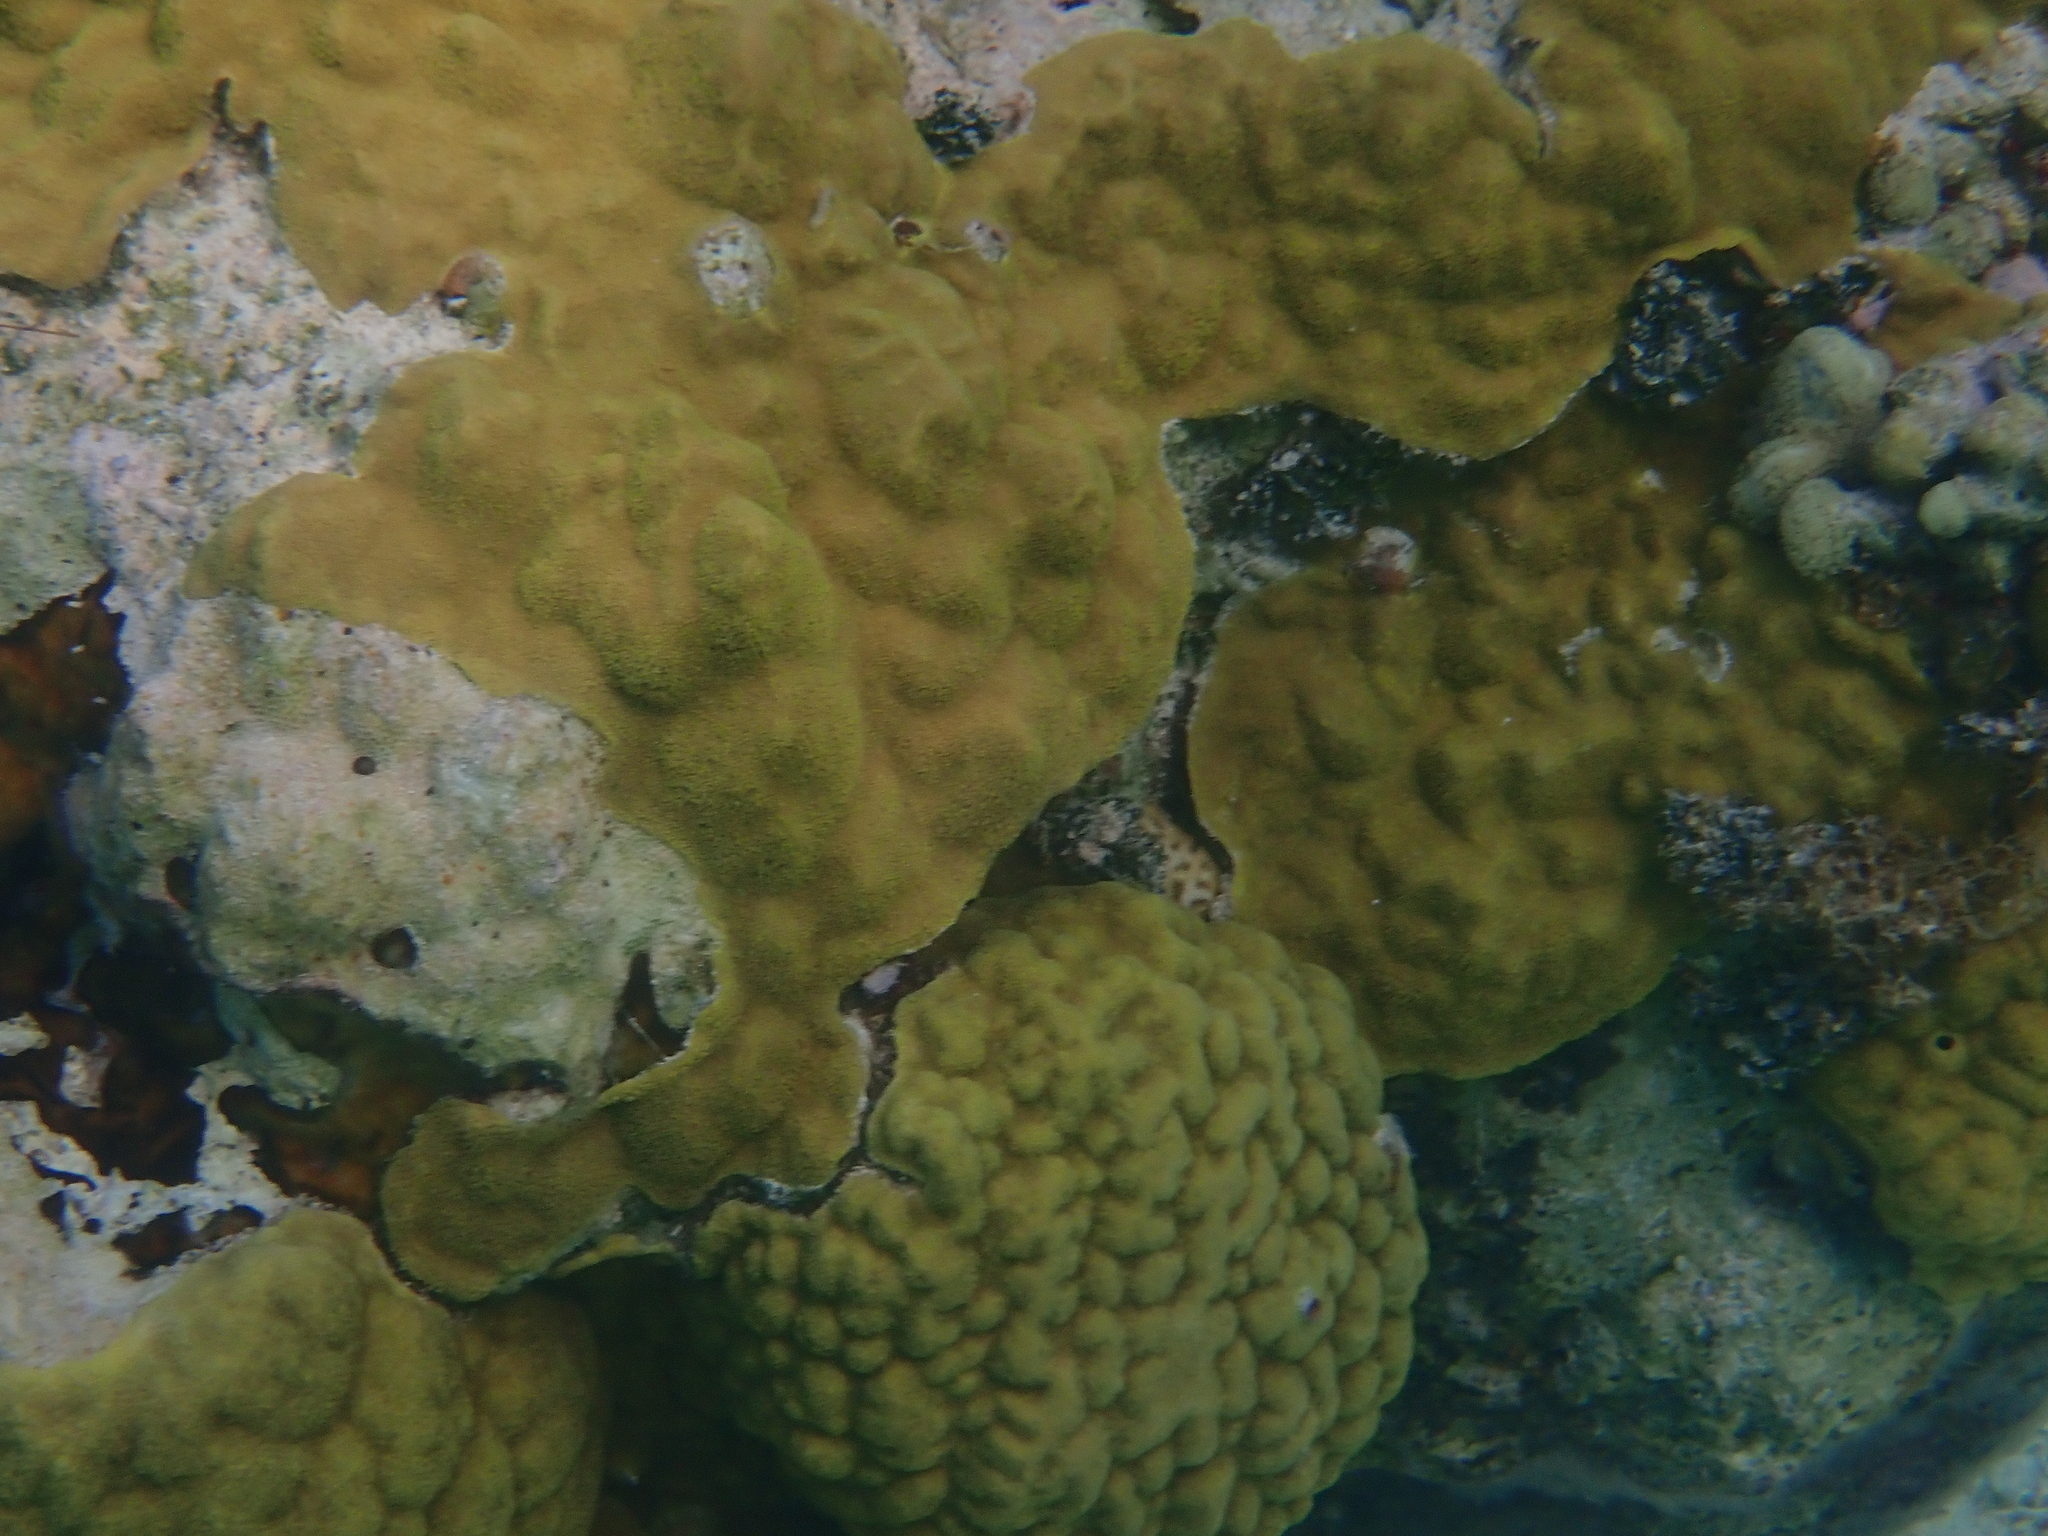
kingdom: Animalia
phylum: Cnidaria
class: Anthozoa
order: Scleractinia
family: Poritidae
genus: Porites
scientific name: Porites astreoides
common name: Mustard hill coral
